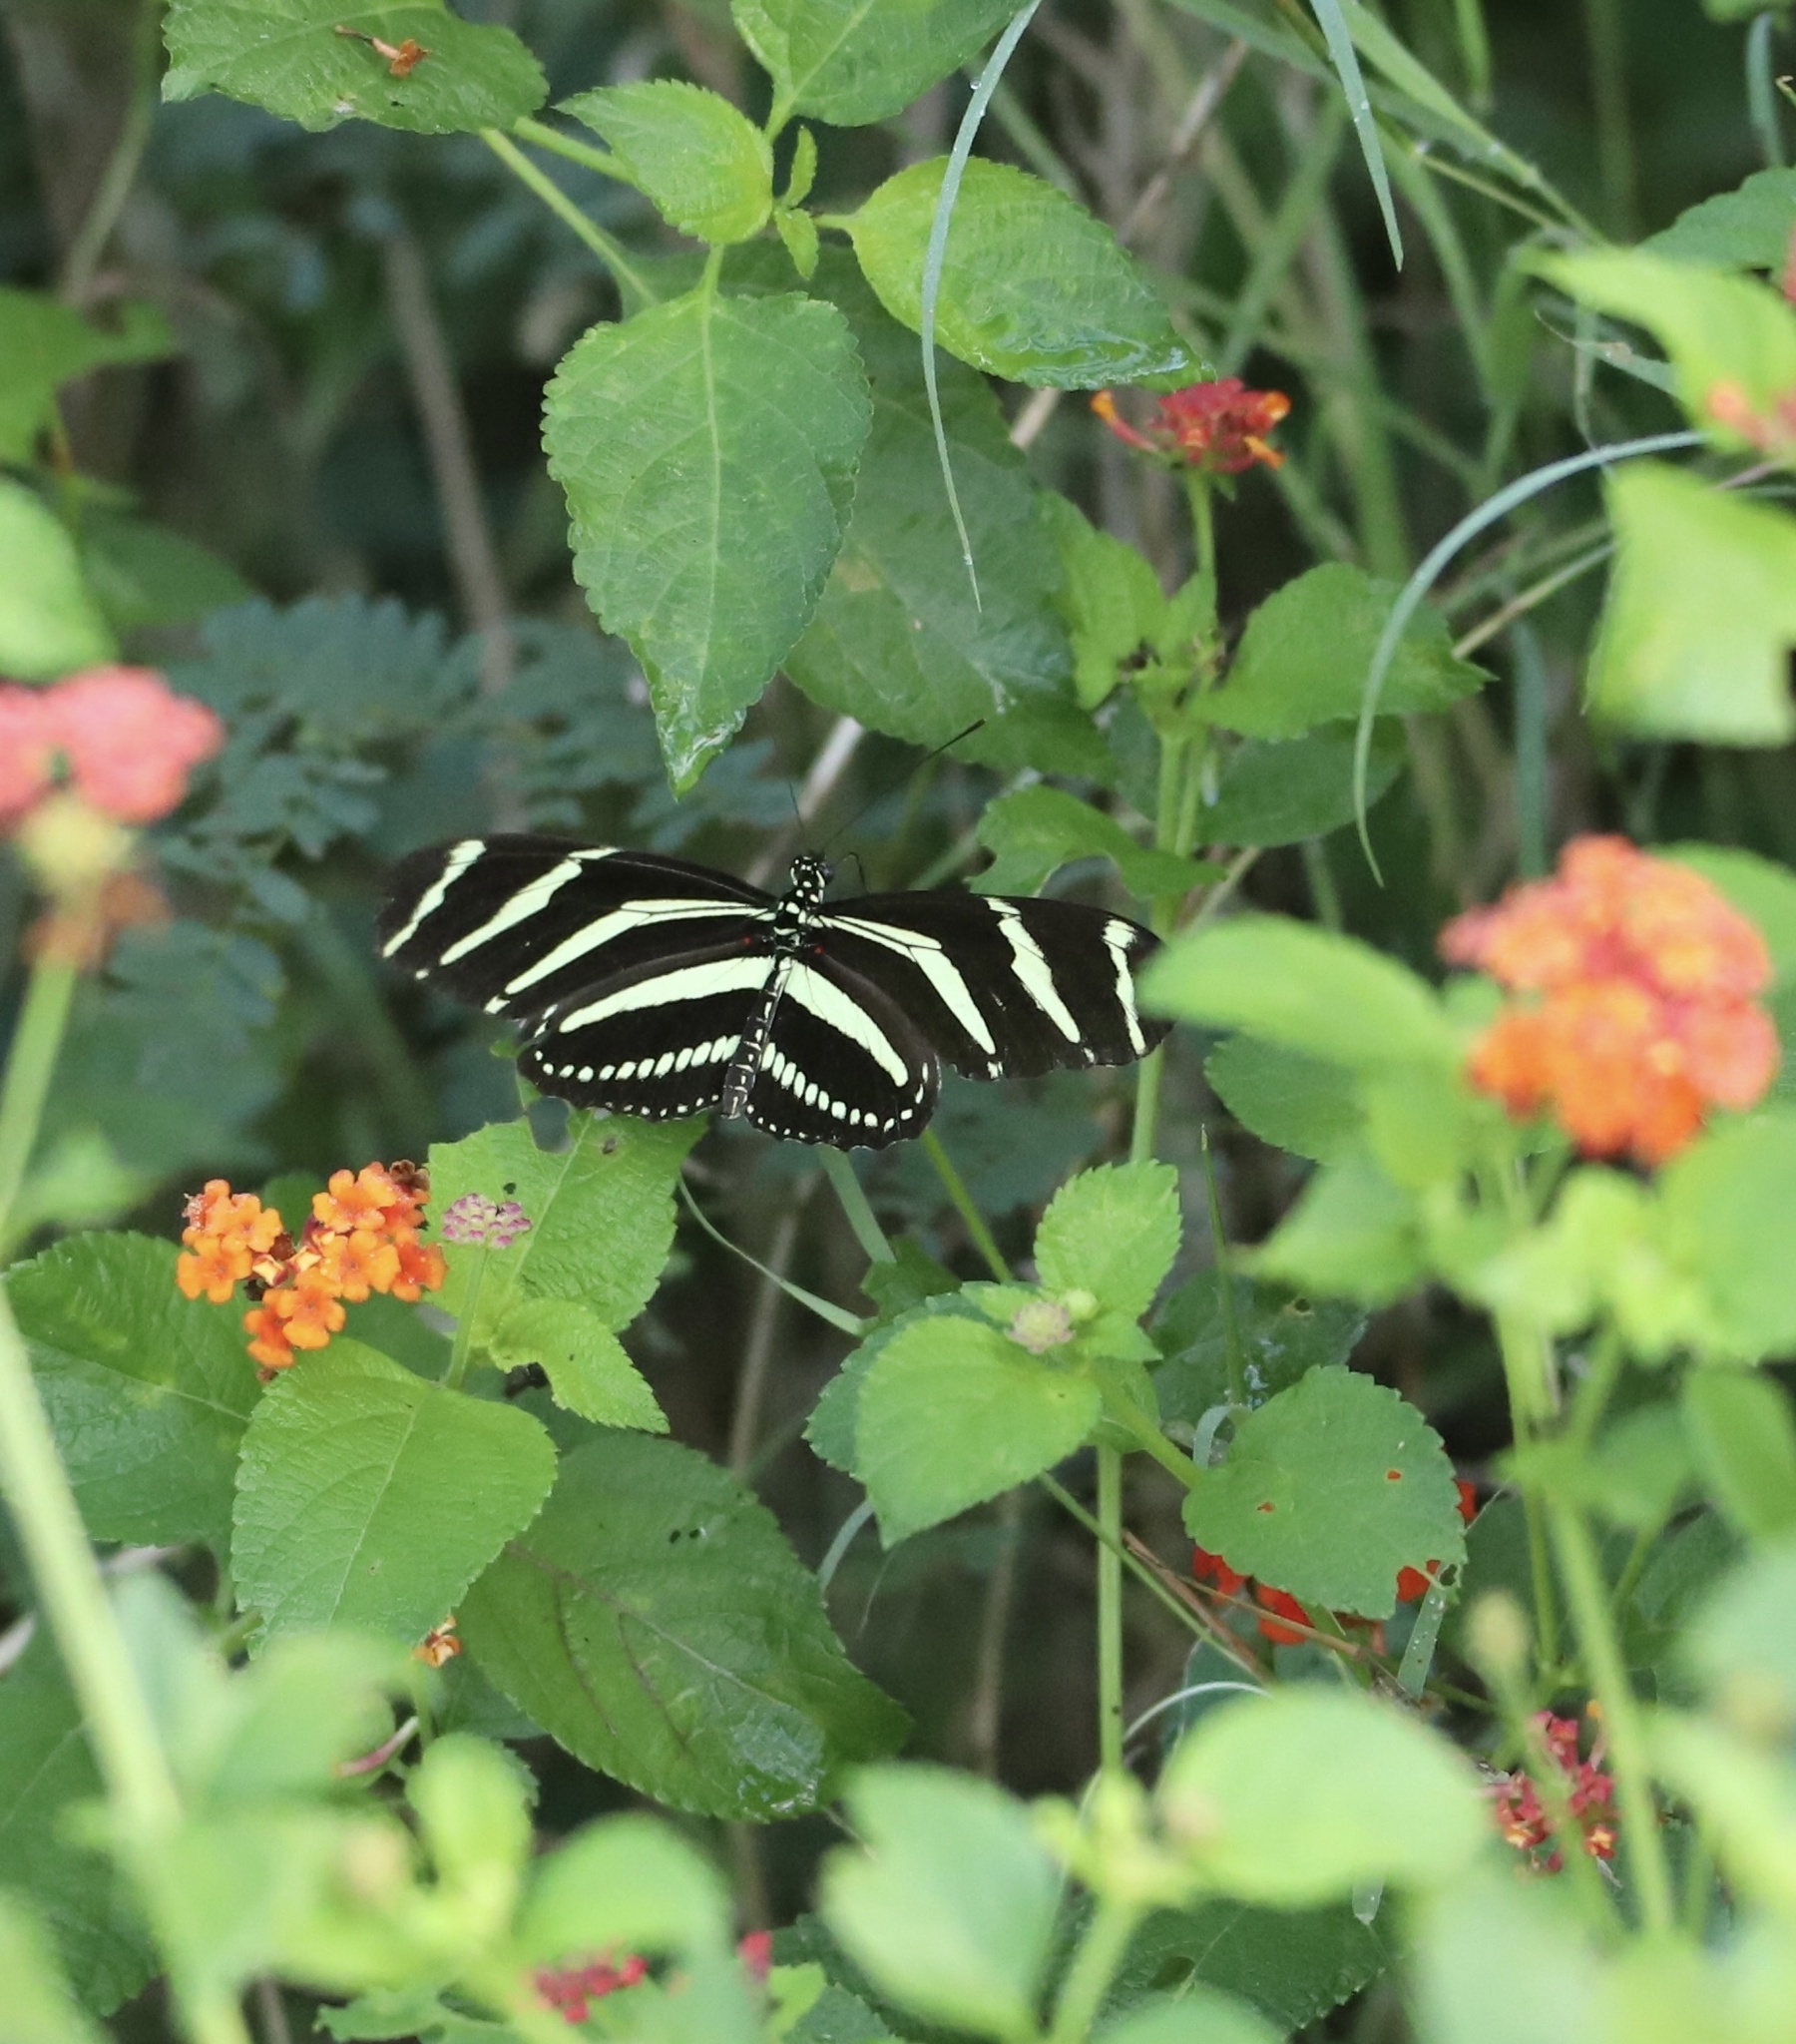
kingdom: Animalia
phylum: Arthropoda
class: Insecta
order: Lepidoptera
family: Nymphalidae
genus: Heliconius
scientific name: Heliconius charithonia
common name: Zebra long wing
